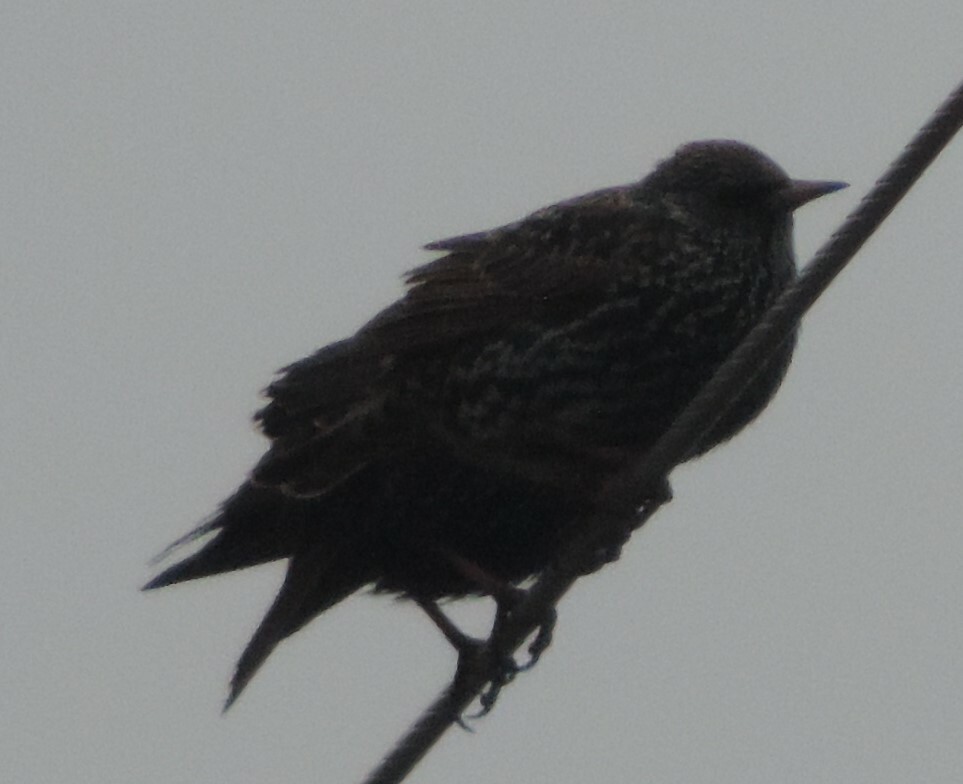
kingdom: Animalia
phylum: Chordata
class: Aves
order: Passeriformes
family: Sturnidae
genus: Sturnus
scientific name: Sturnus vulgaris
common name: Common starling
